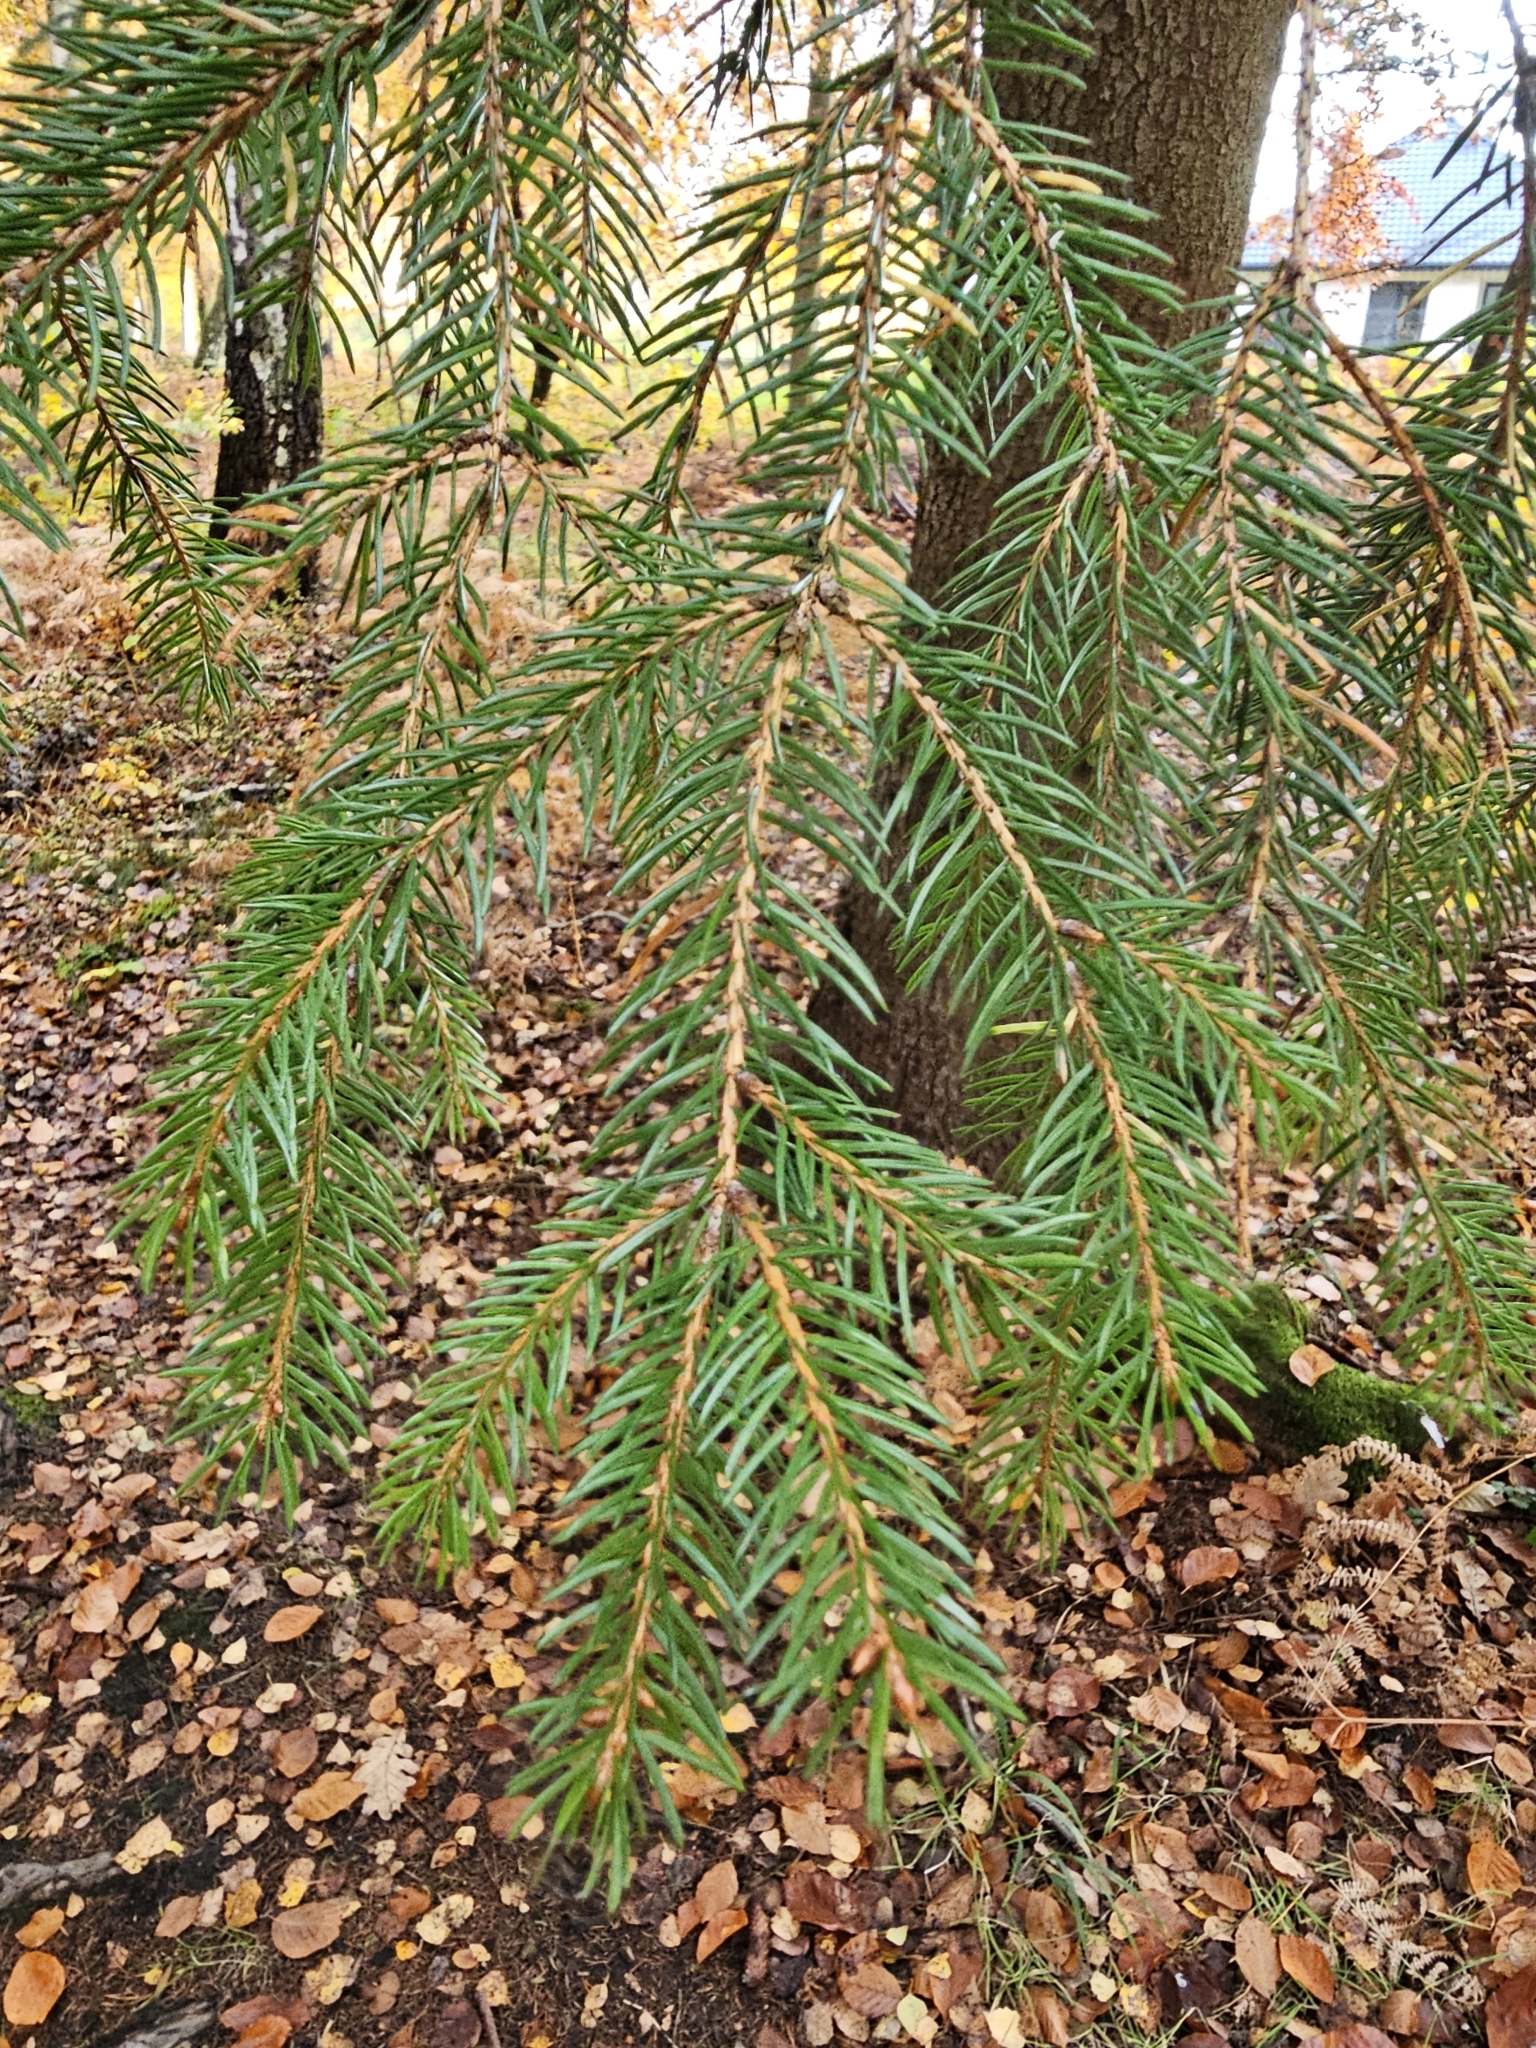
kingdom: Plantae
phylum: Tracheophyta
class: Pinopsida
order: Pinales
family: Pinaceae
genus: Picea
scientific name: Picea abies
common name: Norway spruce
